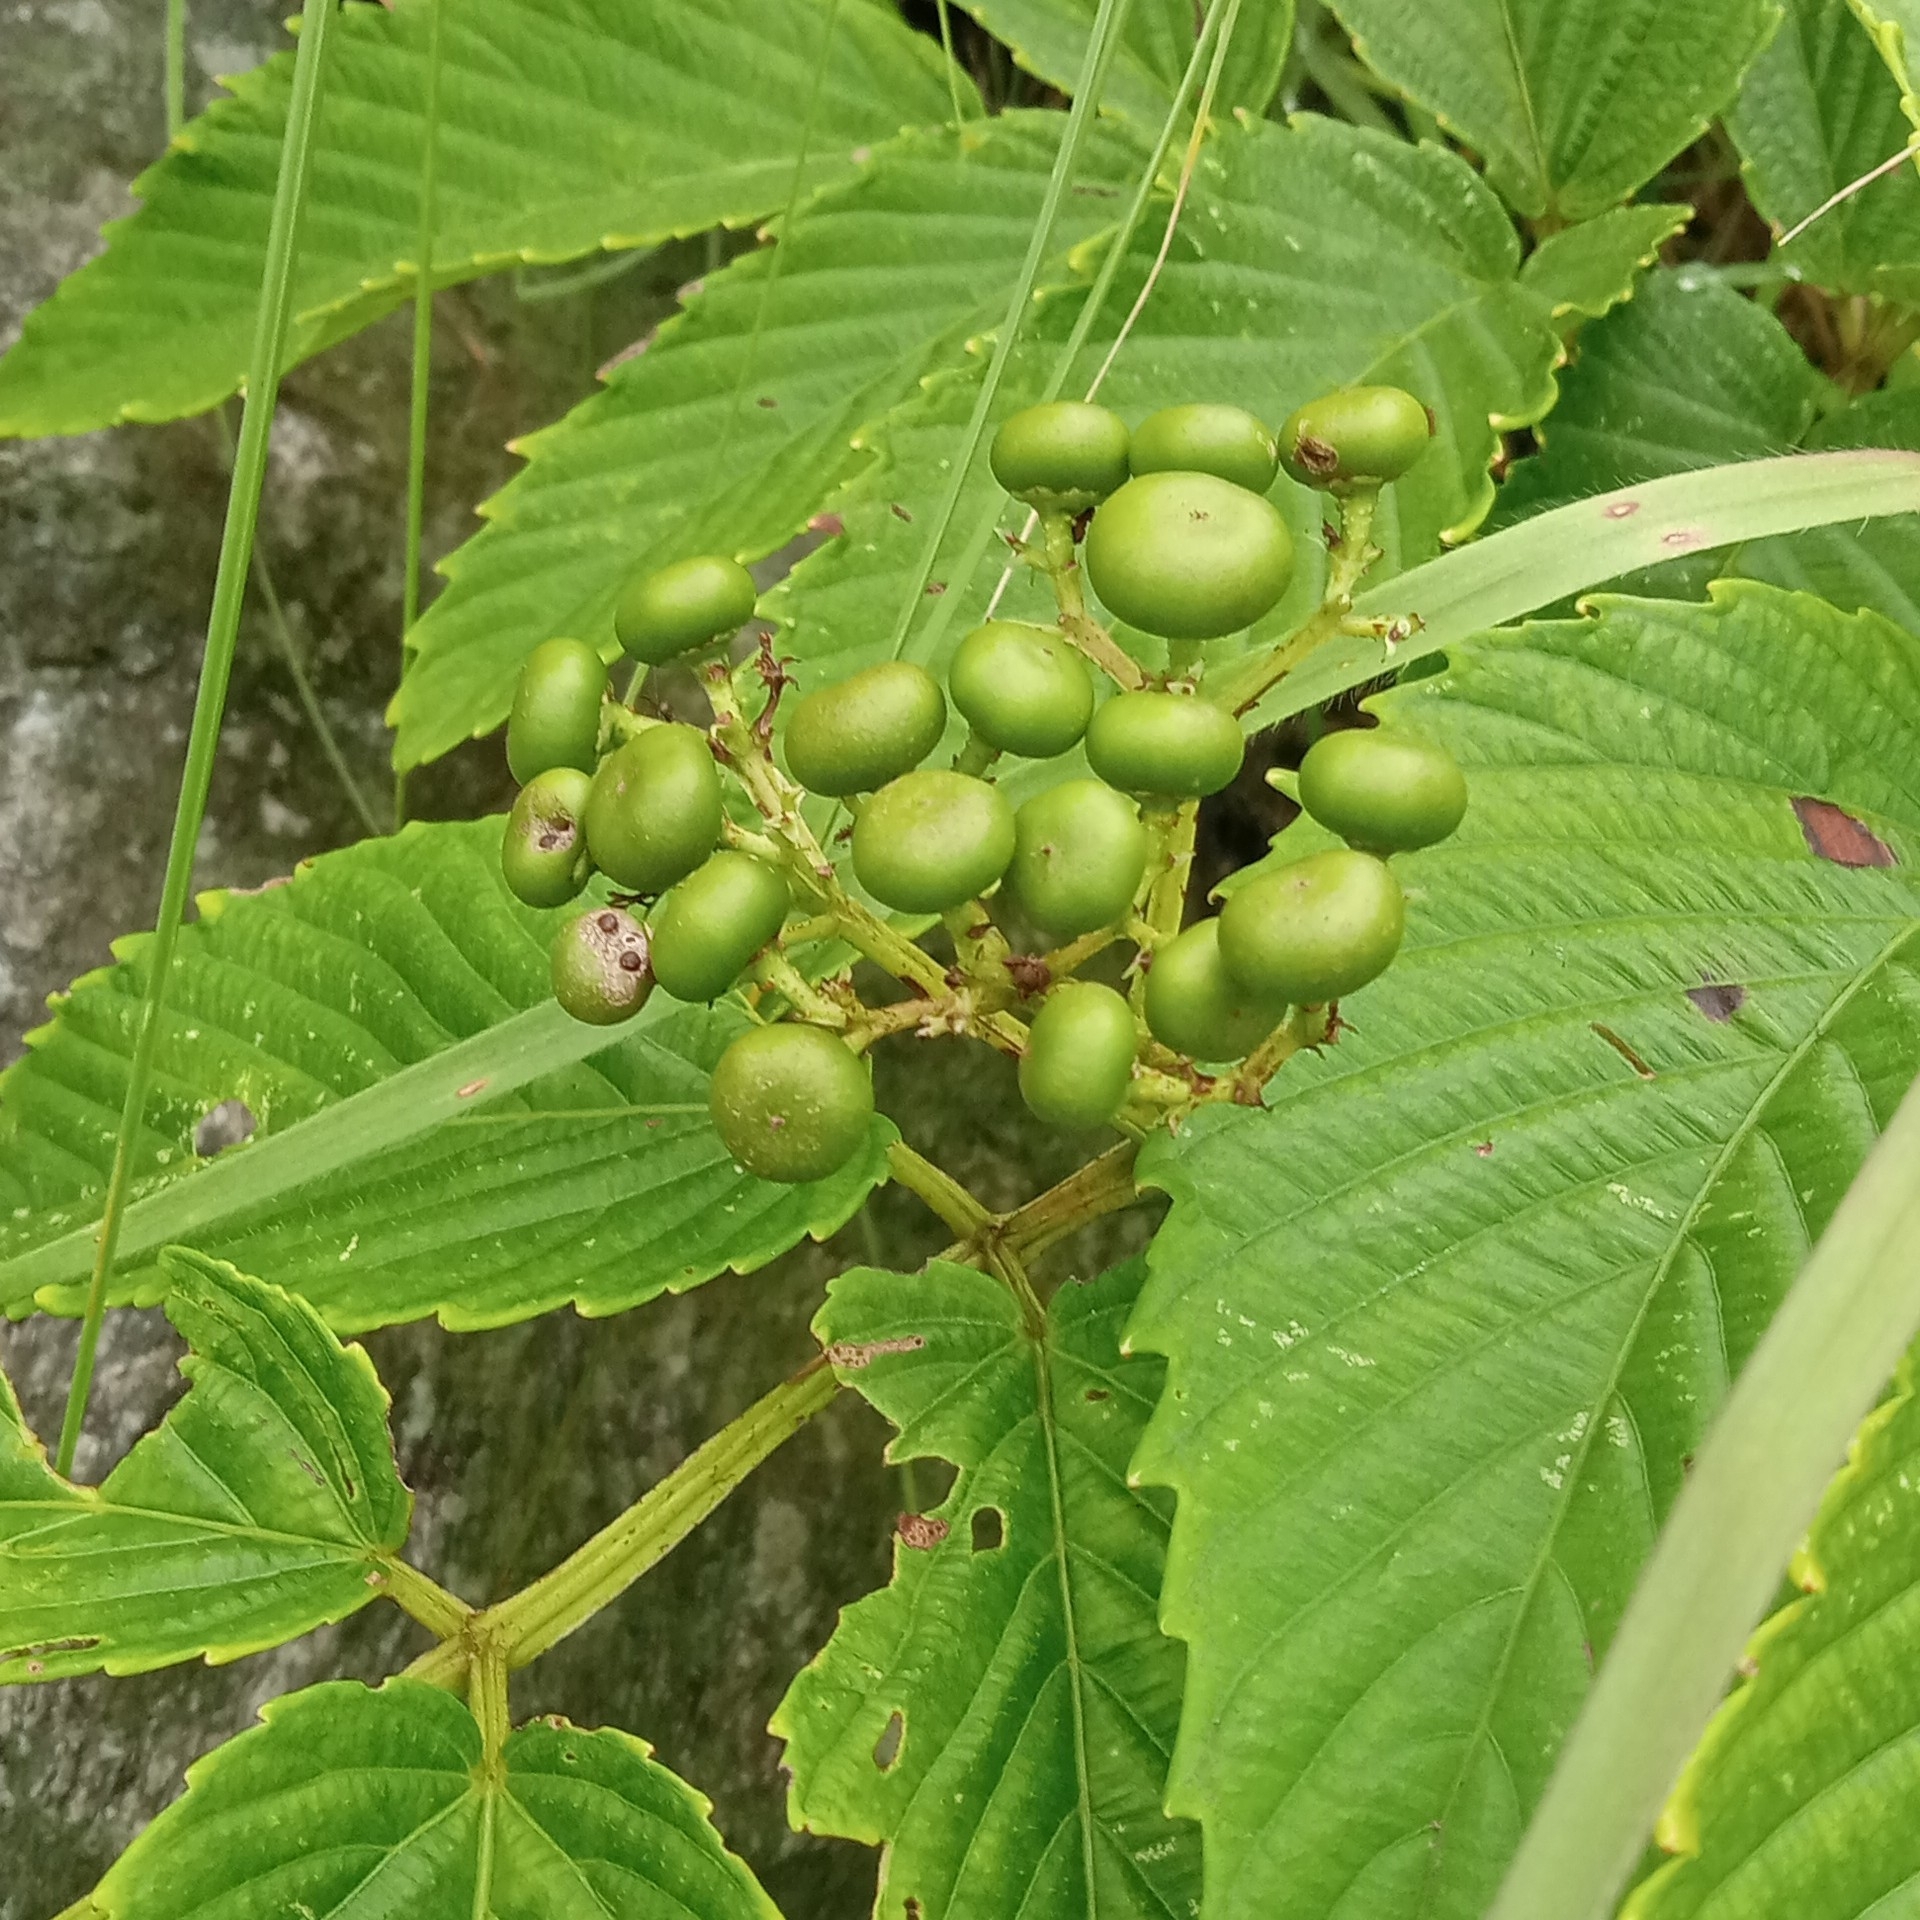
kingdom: Plantae
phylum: Tracheophyta
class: Magnoliopsida
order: Vitales
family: Vitaceae
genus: Leea
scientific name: Leea asiatica
